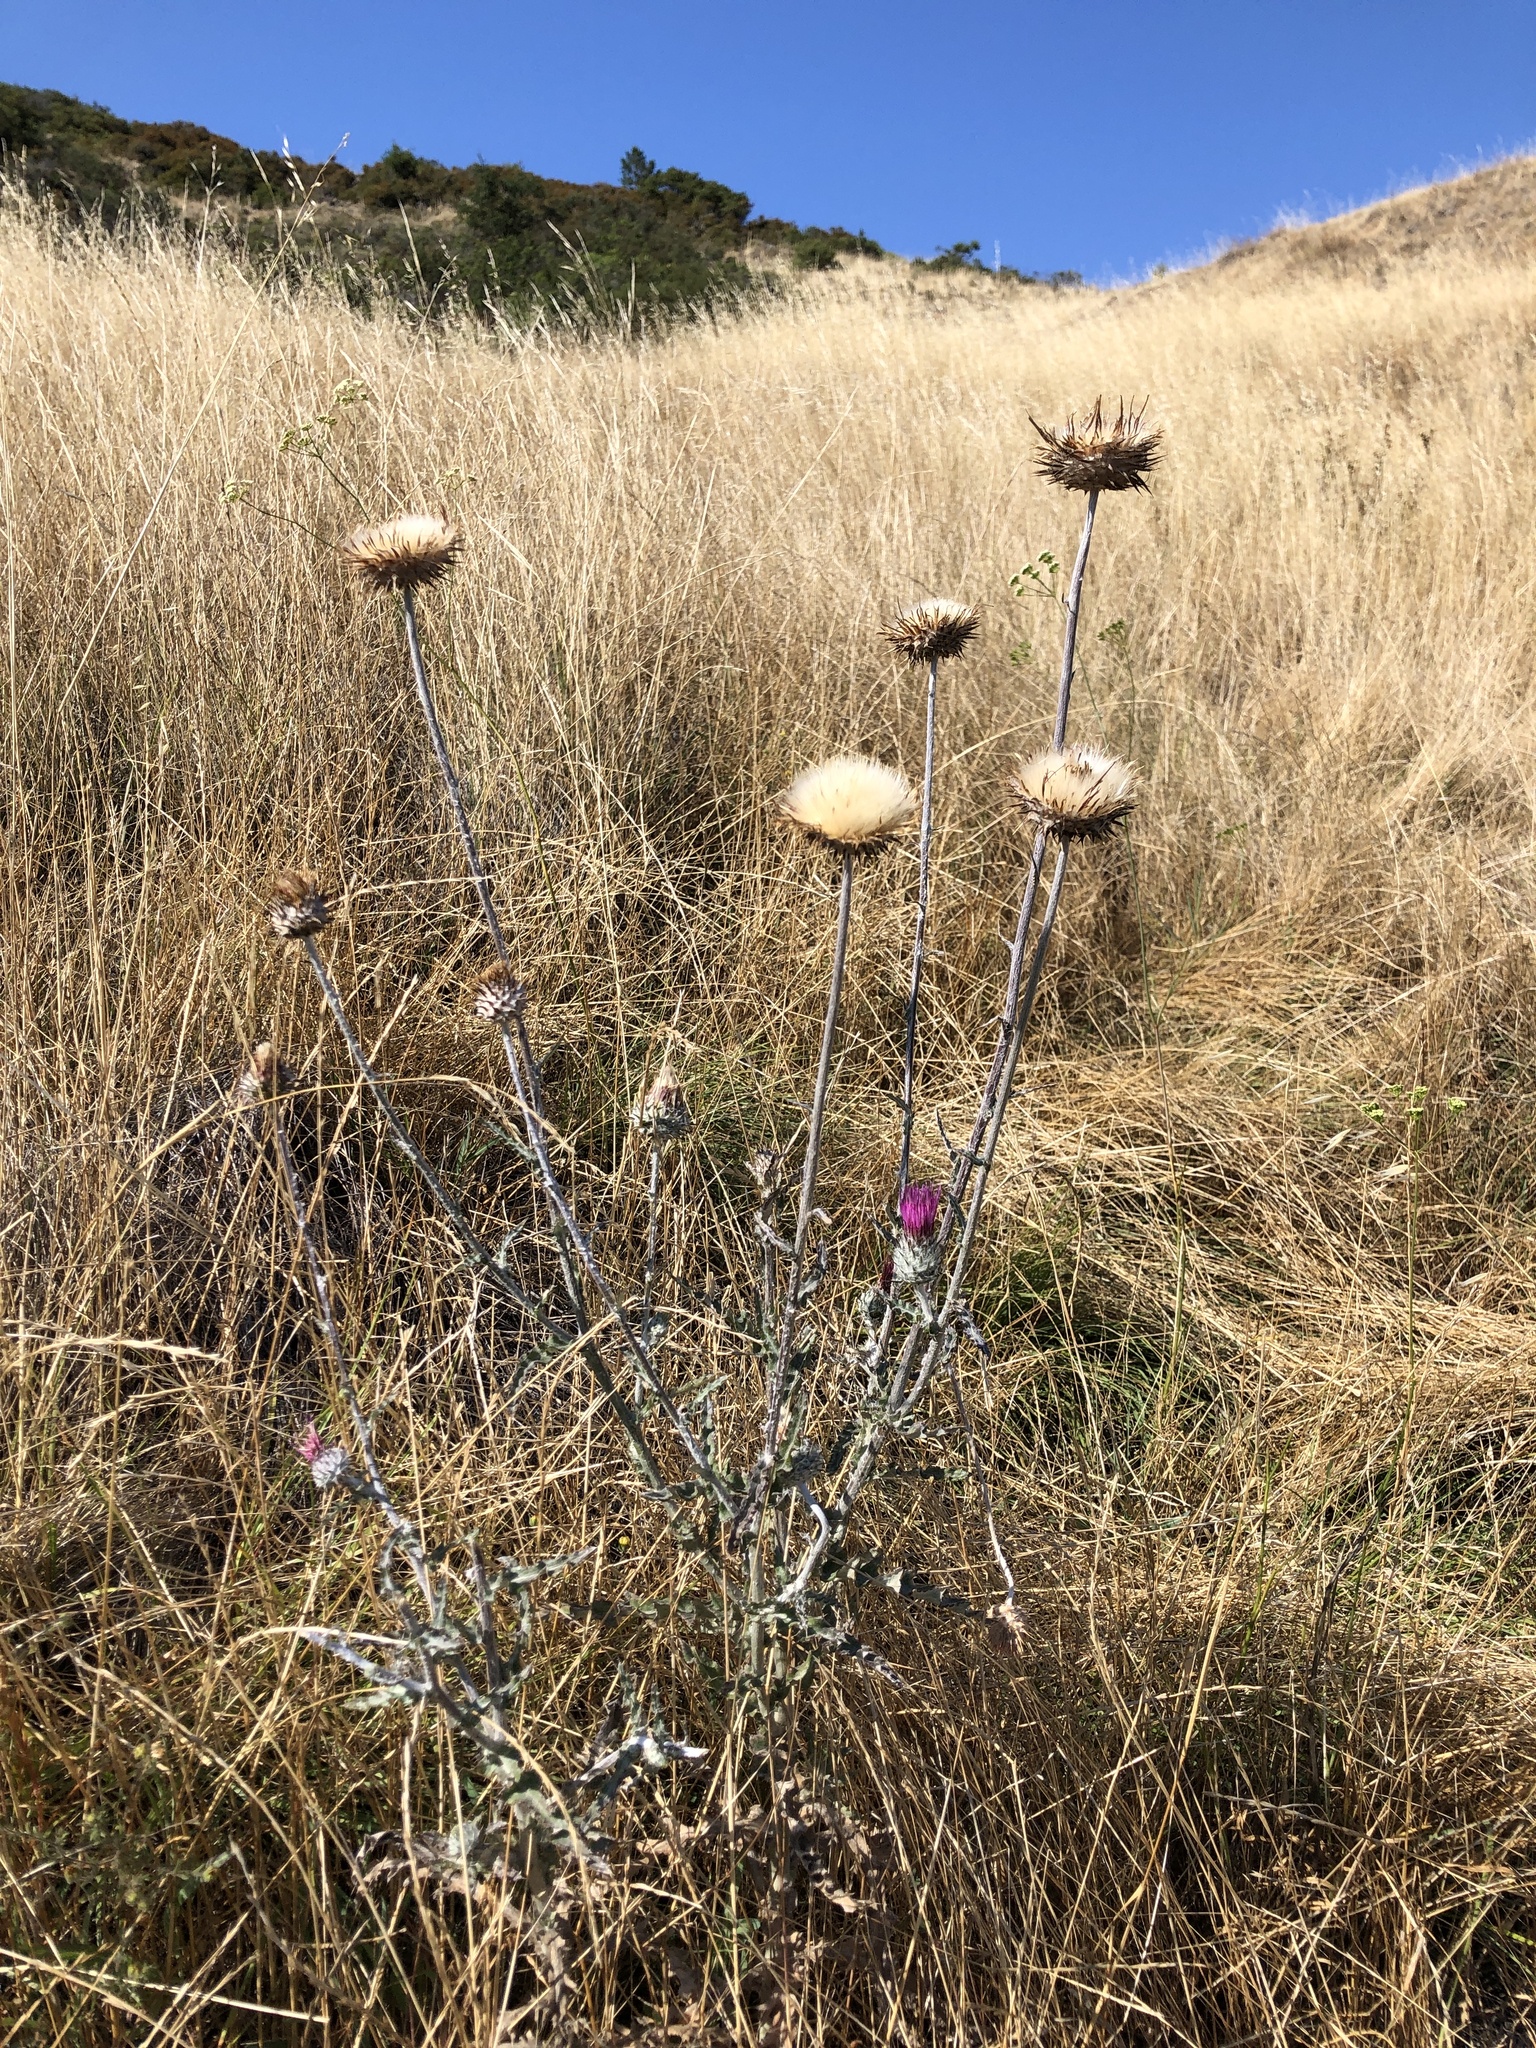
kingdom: Plantae
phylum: Tracheophyta
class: Magnoliopsida
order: Asterales
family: Asteraceae
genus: Cirsium
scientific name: Cirsium occidentale
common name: Western thistle
